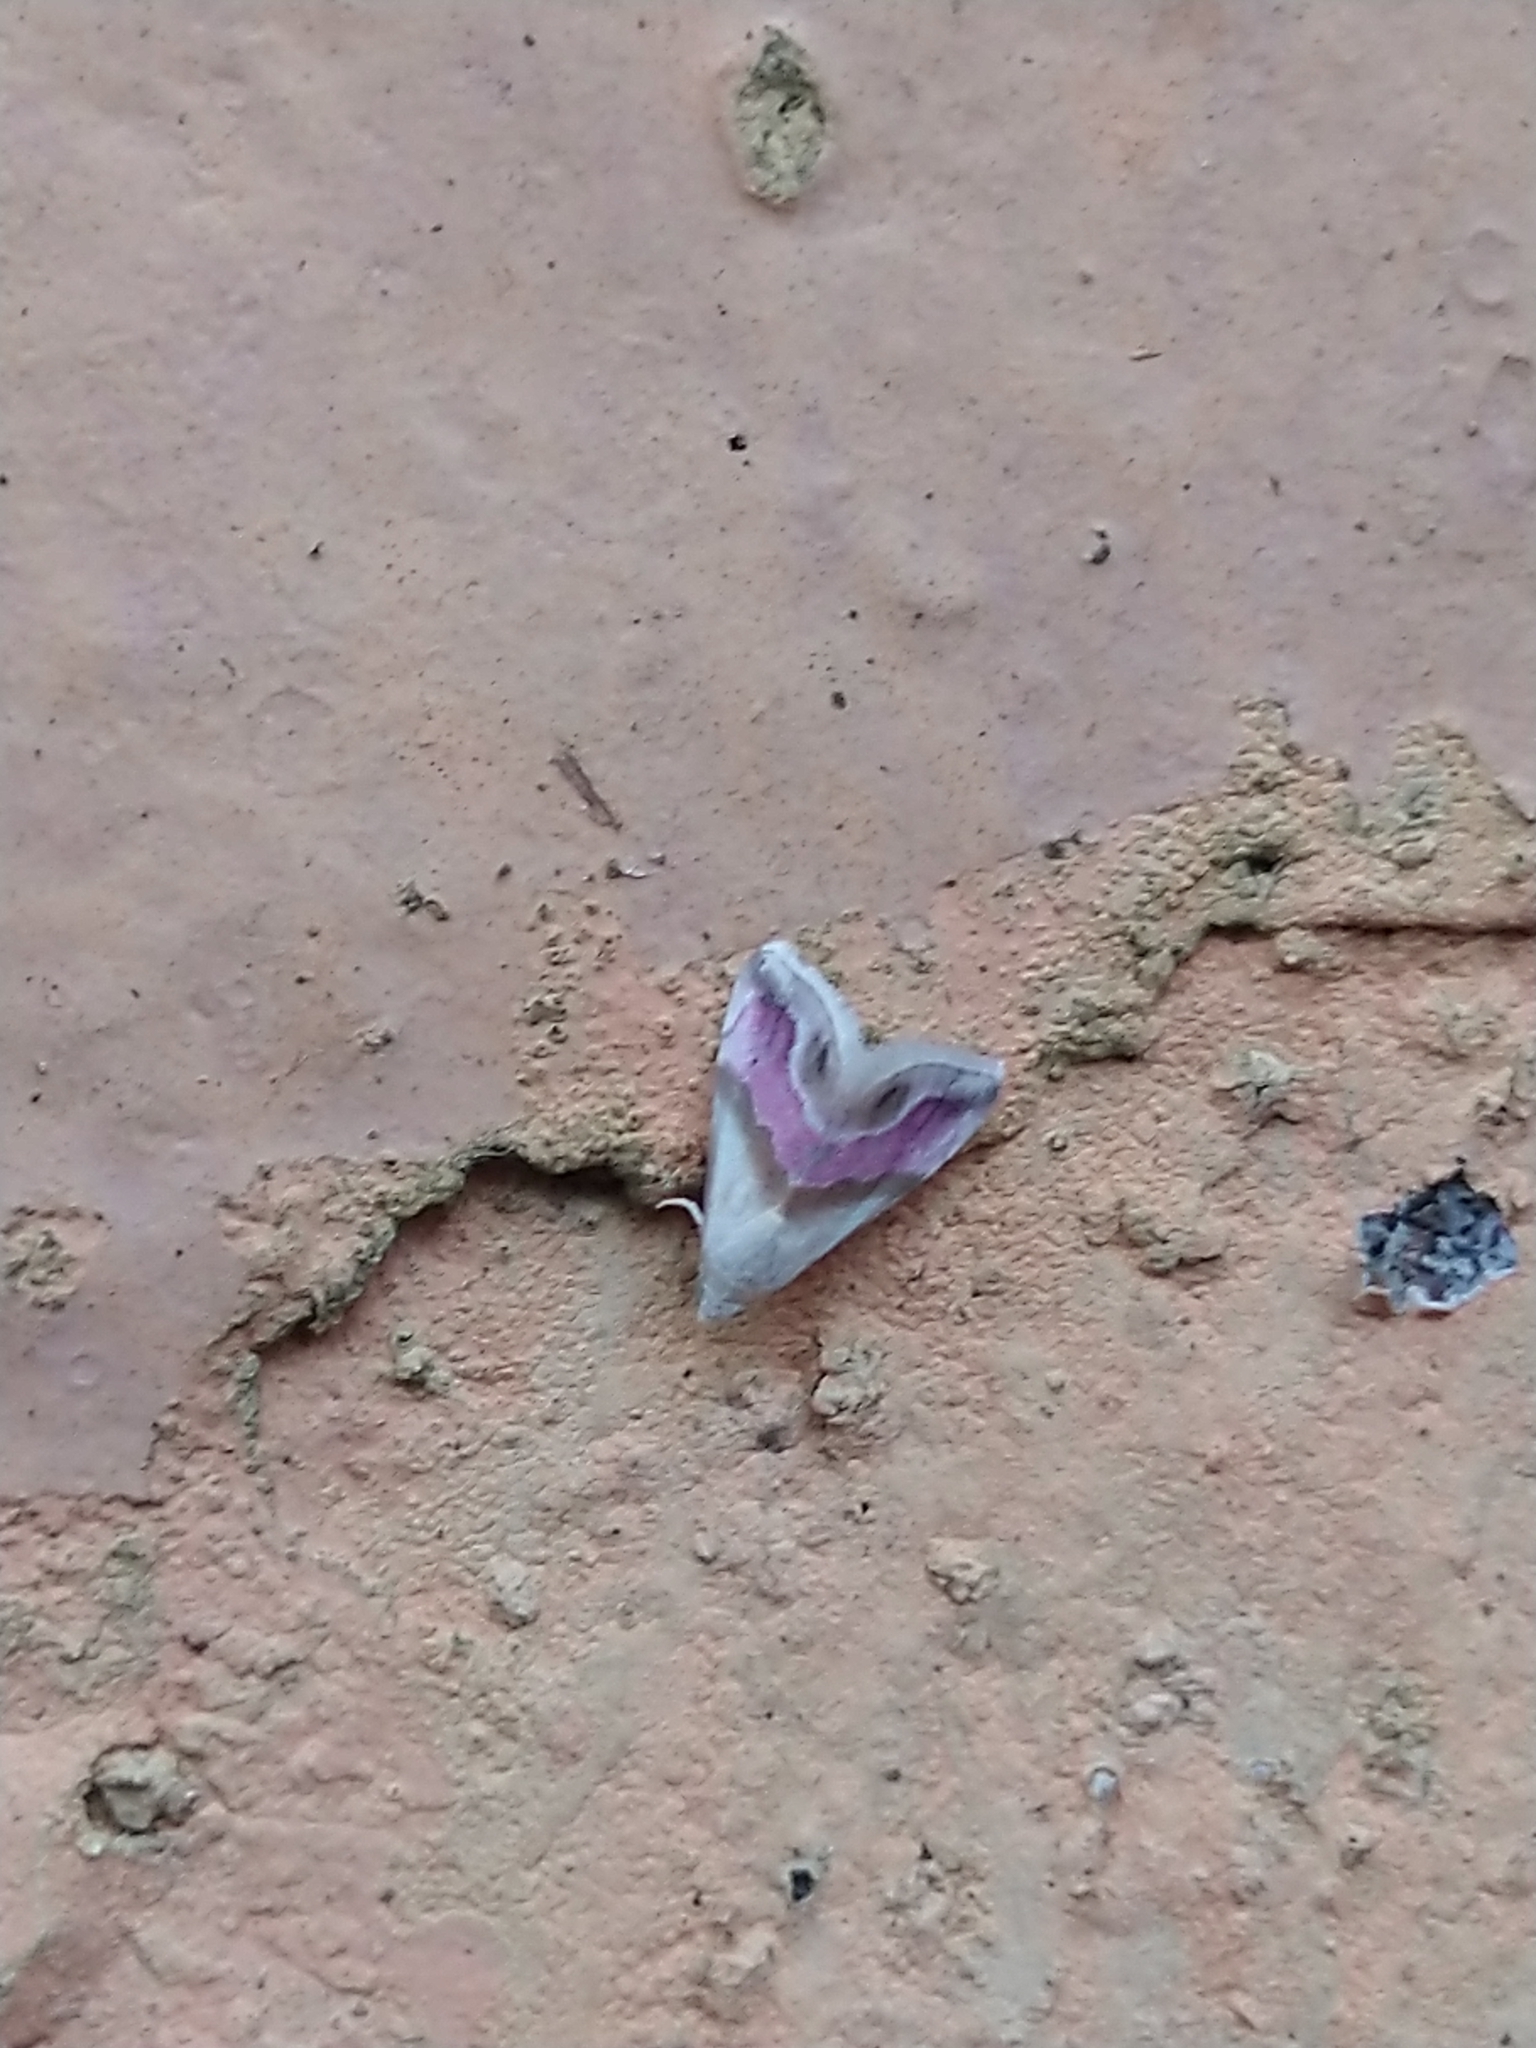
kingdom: Animalia
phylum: Arthropoda
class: Insecta
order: Lepidoptera
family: Noctuidae
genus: Eublemma
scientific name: Eublemma roseana
